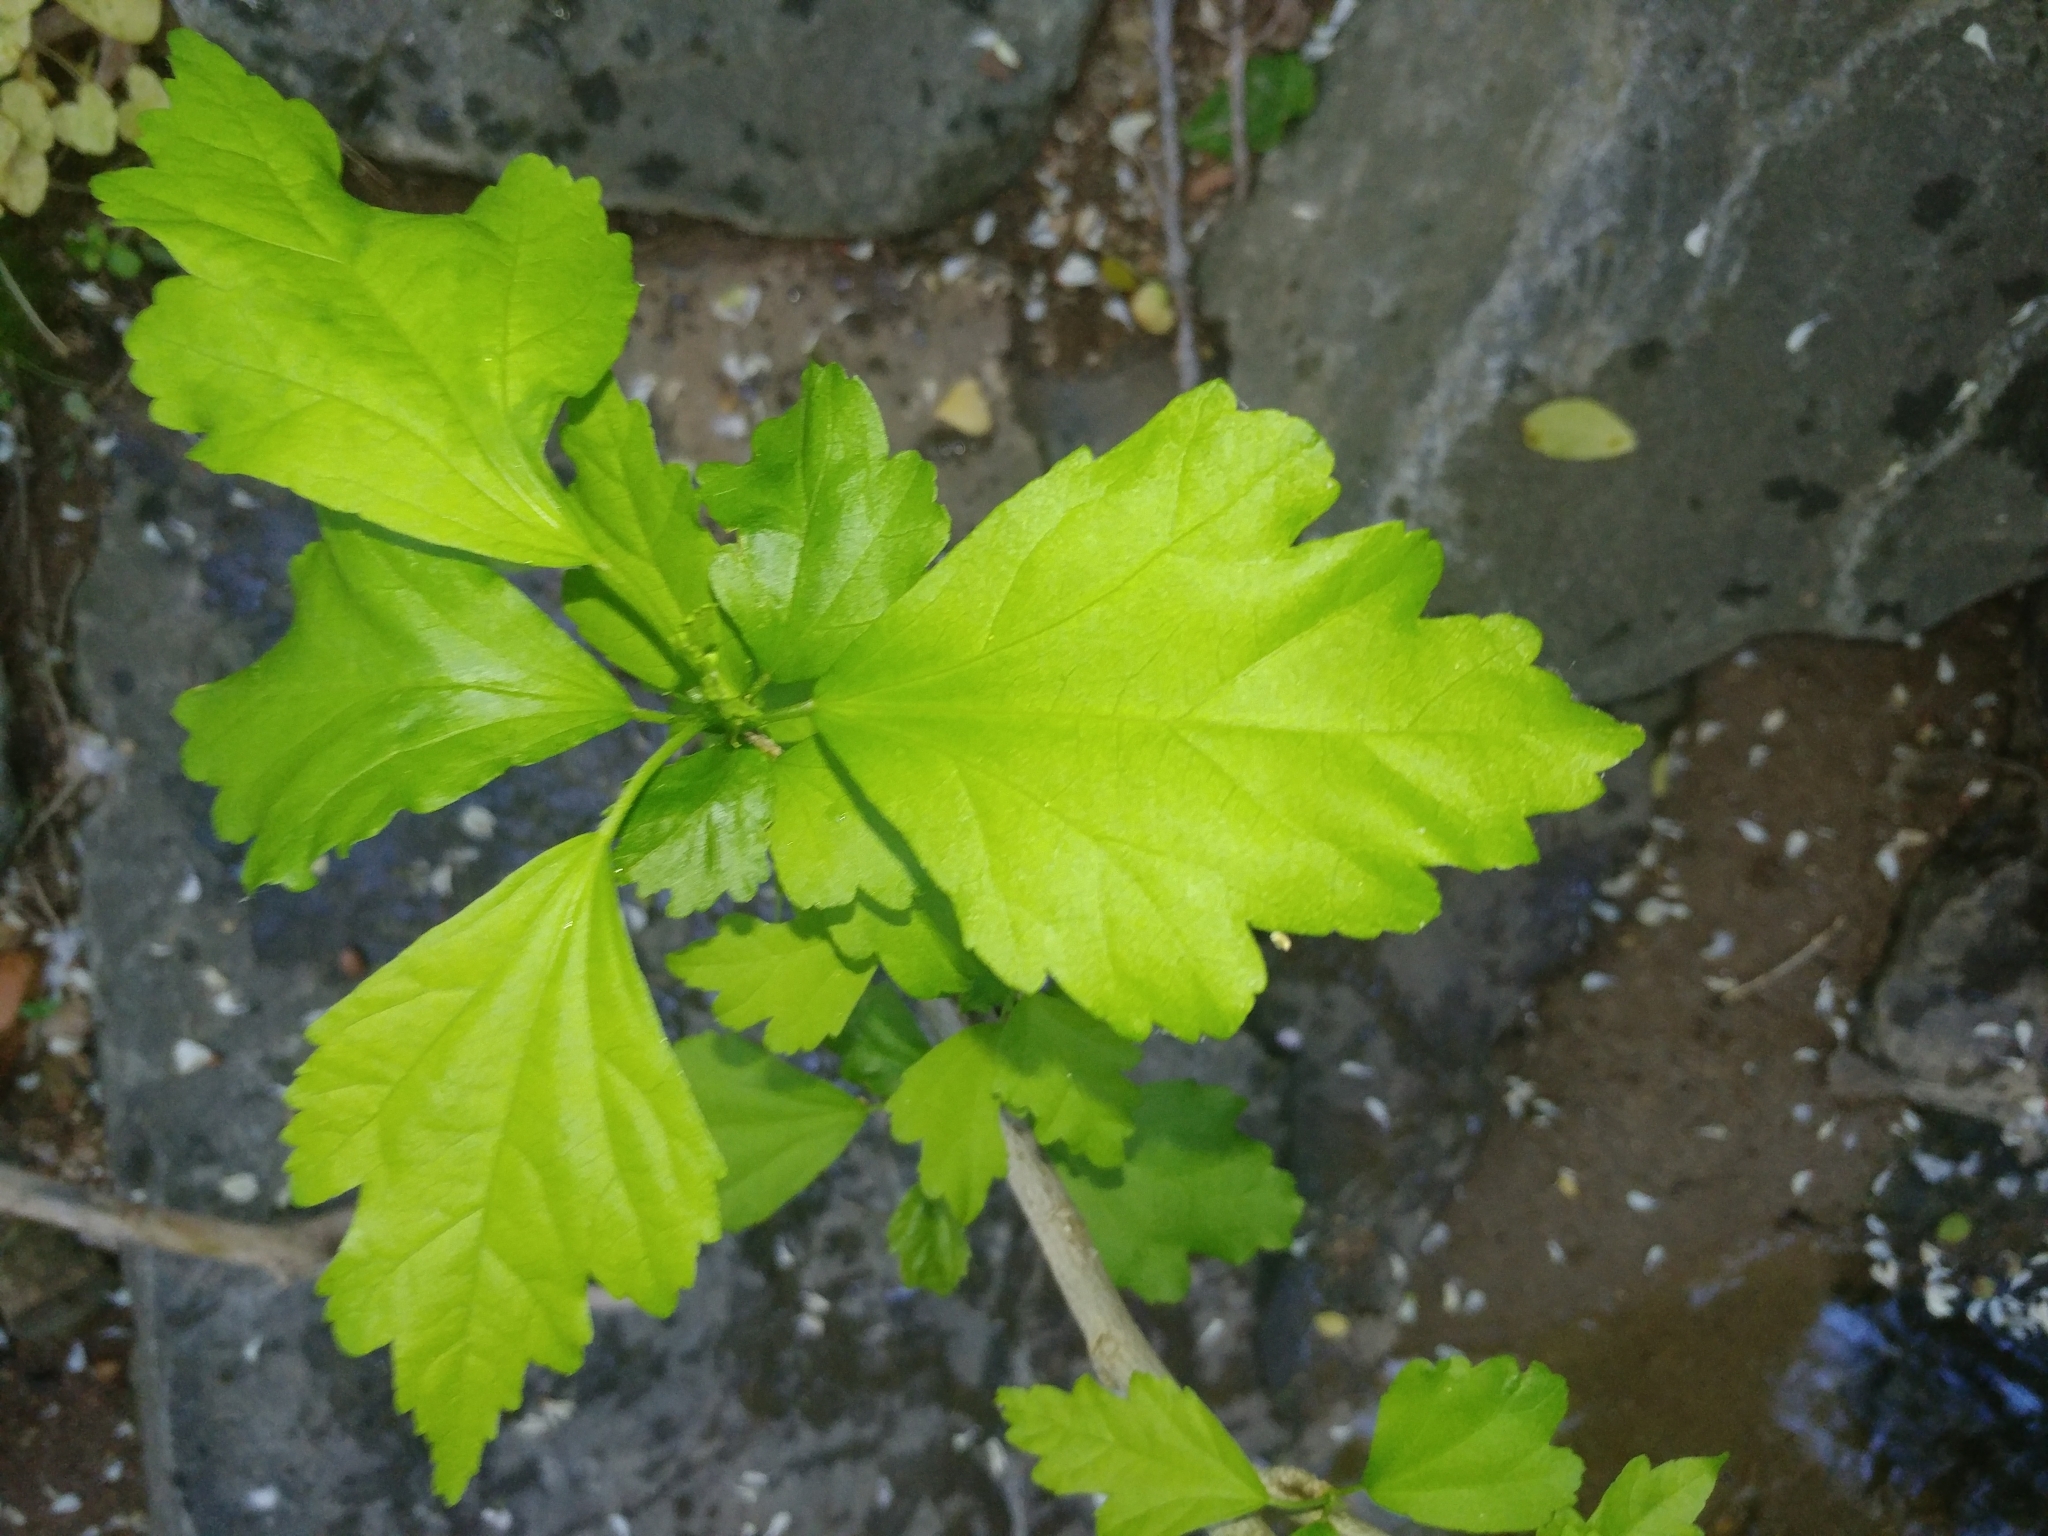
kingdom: Plantae
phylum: Tracheophyta
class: Magnoliopsida
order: Malvales
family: Malvaceae
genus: Hibiscus
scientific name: Hibiscus syriacus
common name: Syrian ketmia
